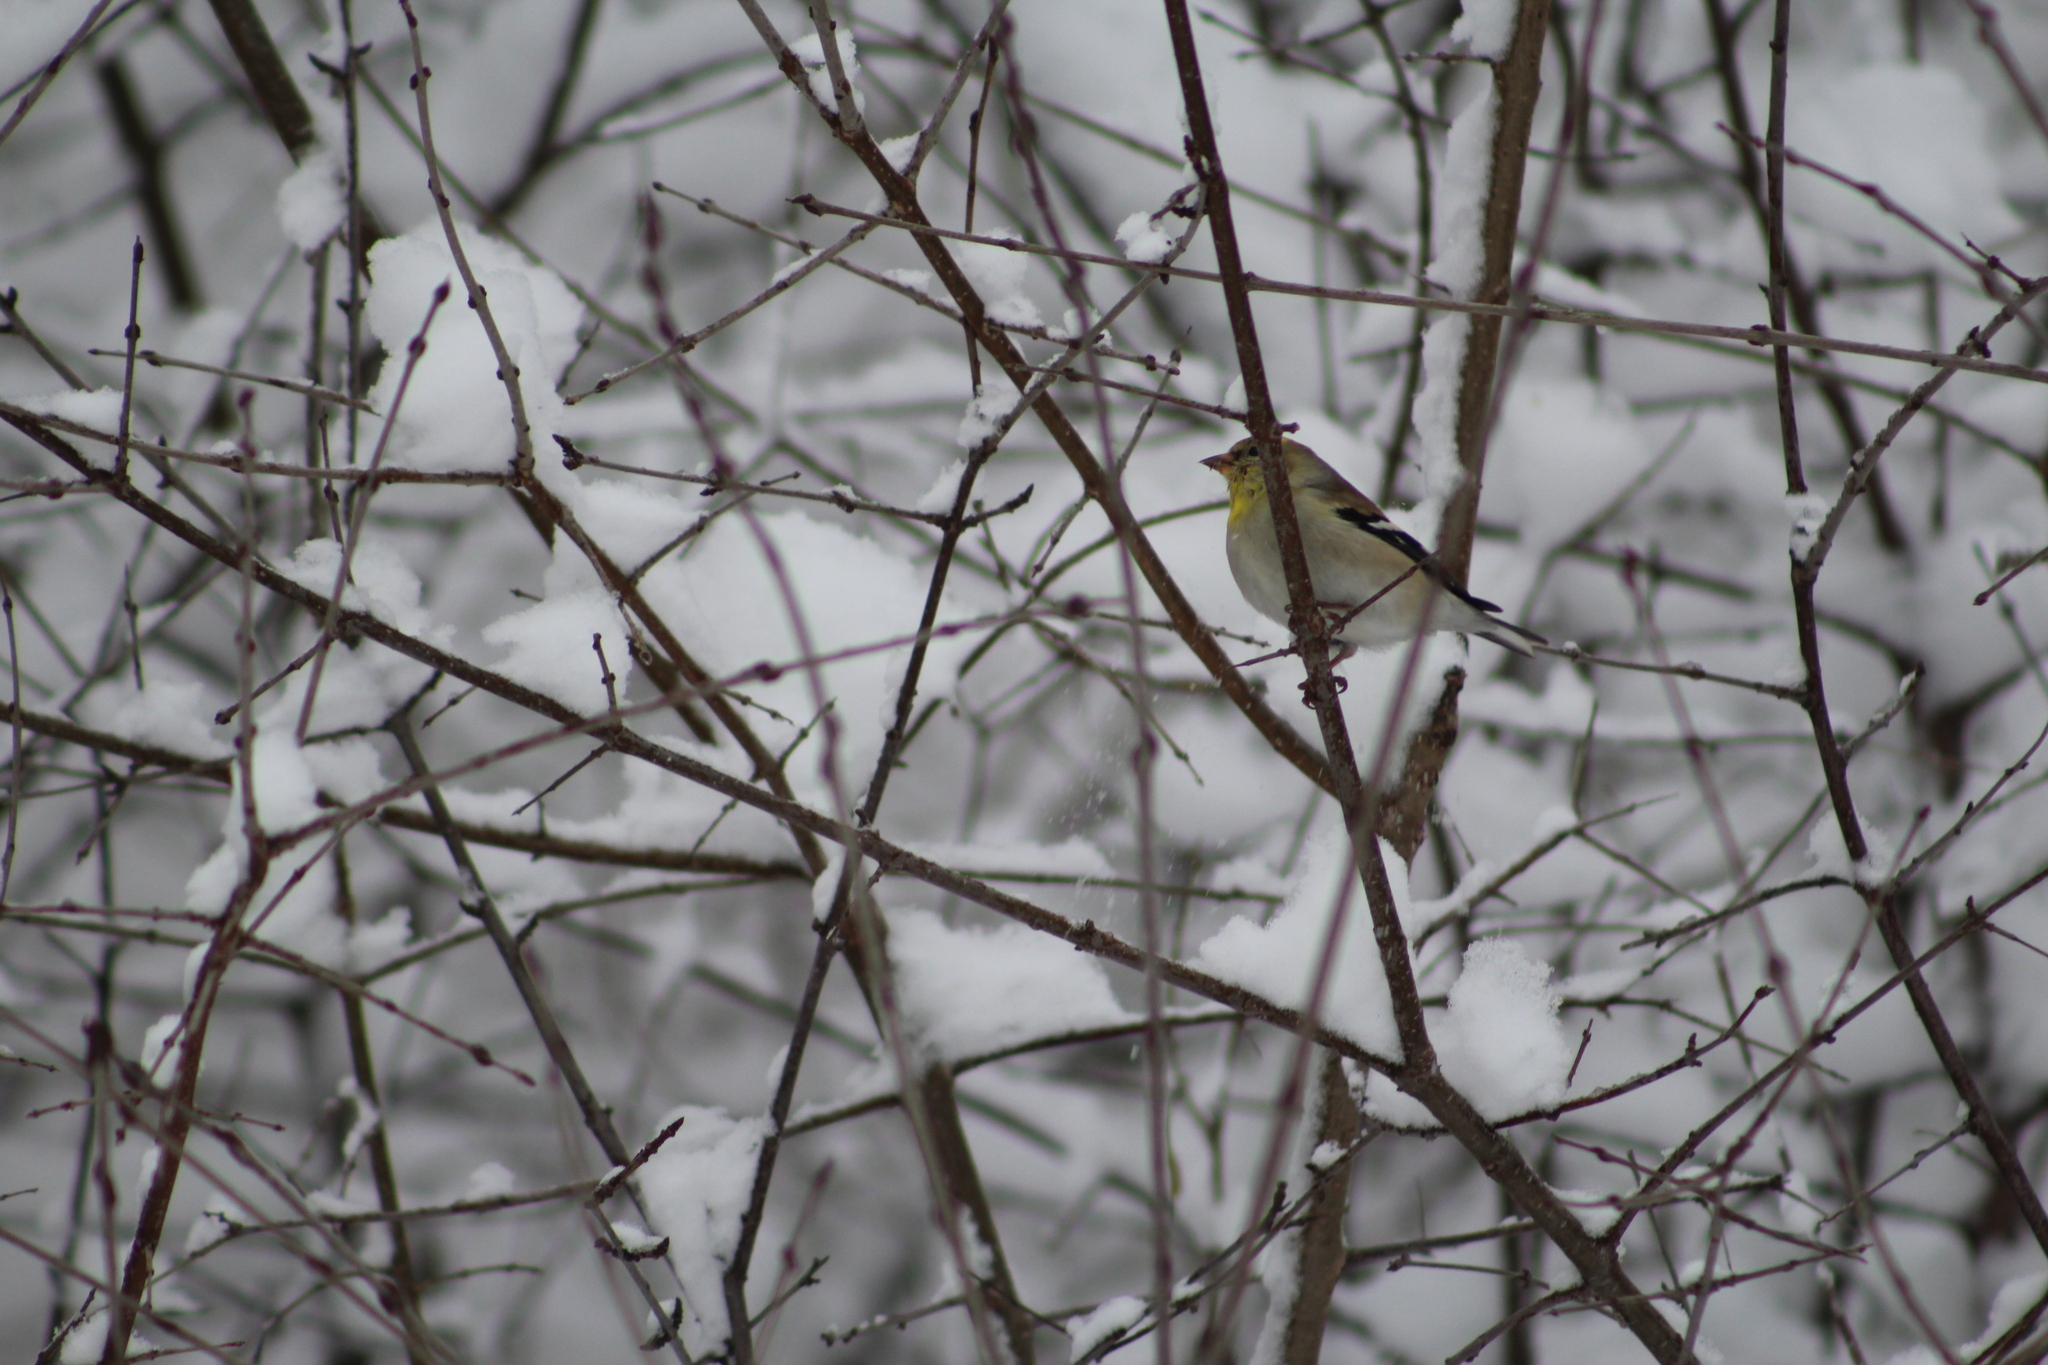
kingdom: Animalia
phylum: Chordata
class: Aves
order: Passeriformes
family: Fringillidae
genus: Spinus
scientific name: Spinus tristis
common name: American goldfinch
